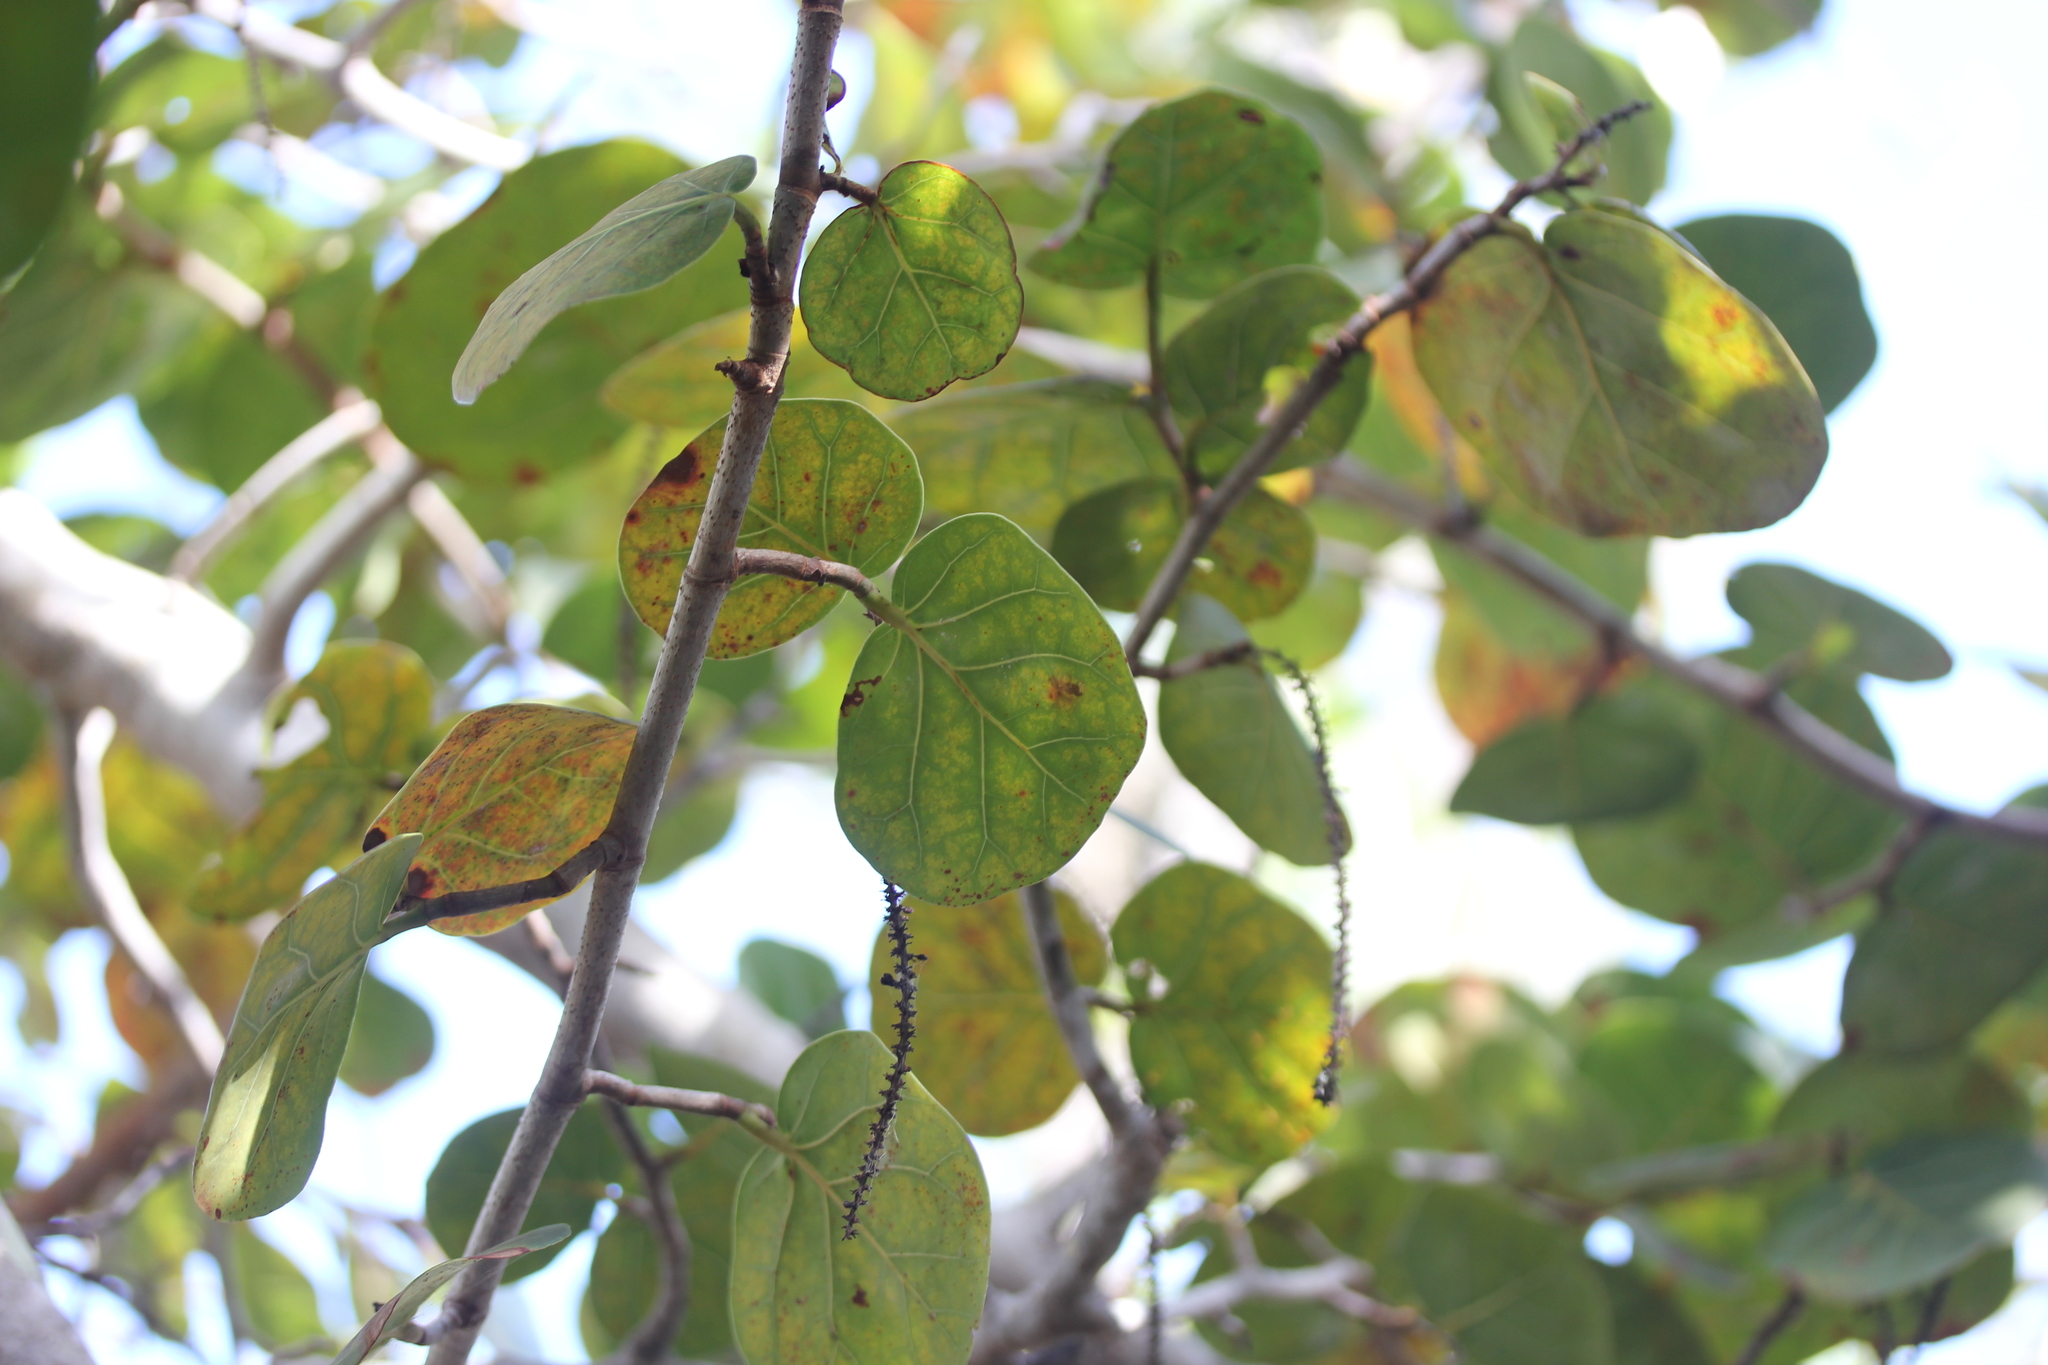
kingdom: Plantae
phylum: Tracheophyta
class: Magnoliopsida
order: Caryophyllales
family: Polygonaceae
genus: Coccoloba
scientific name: Coccoloba uvifera
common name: Seagrape
